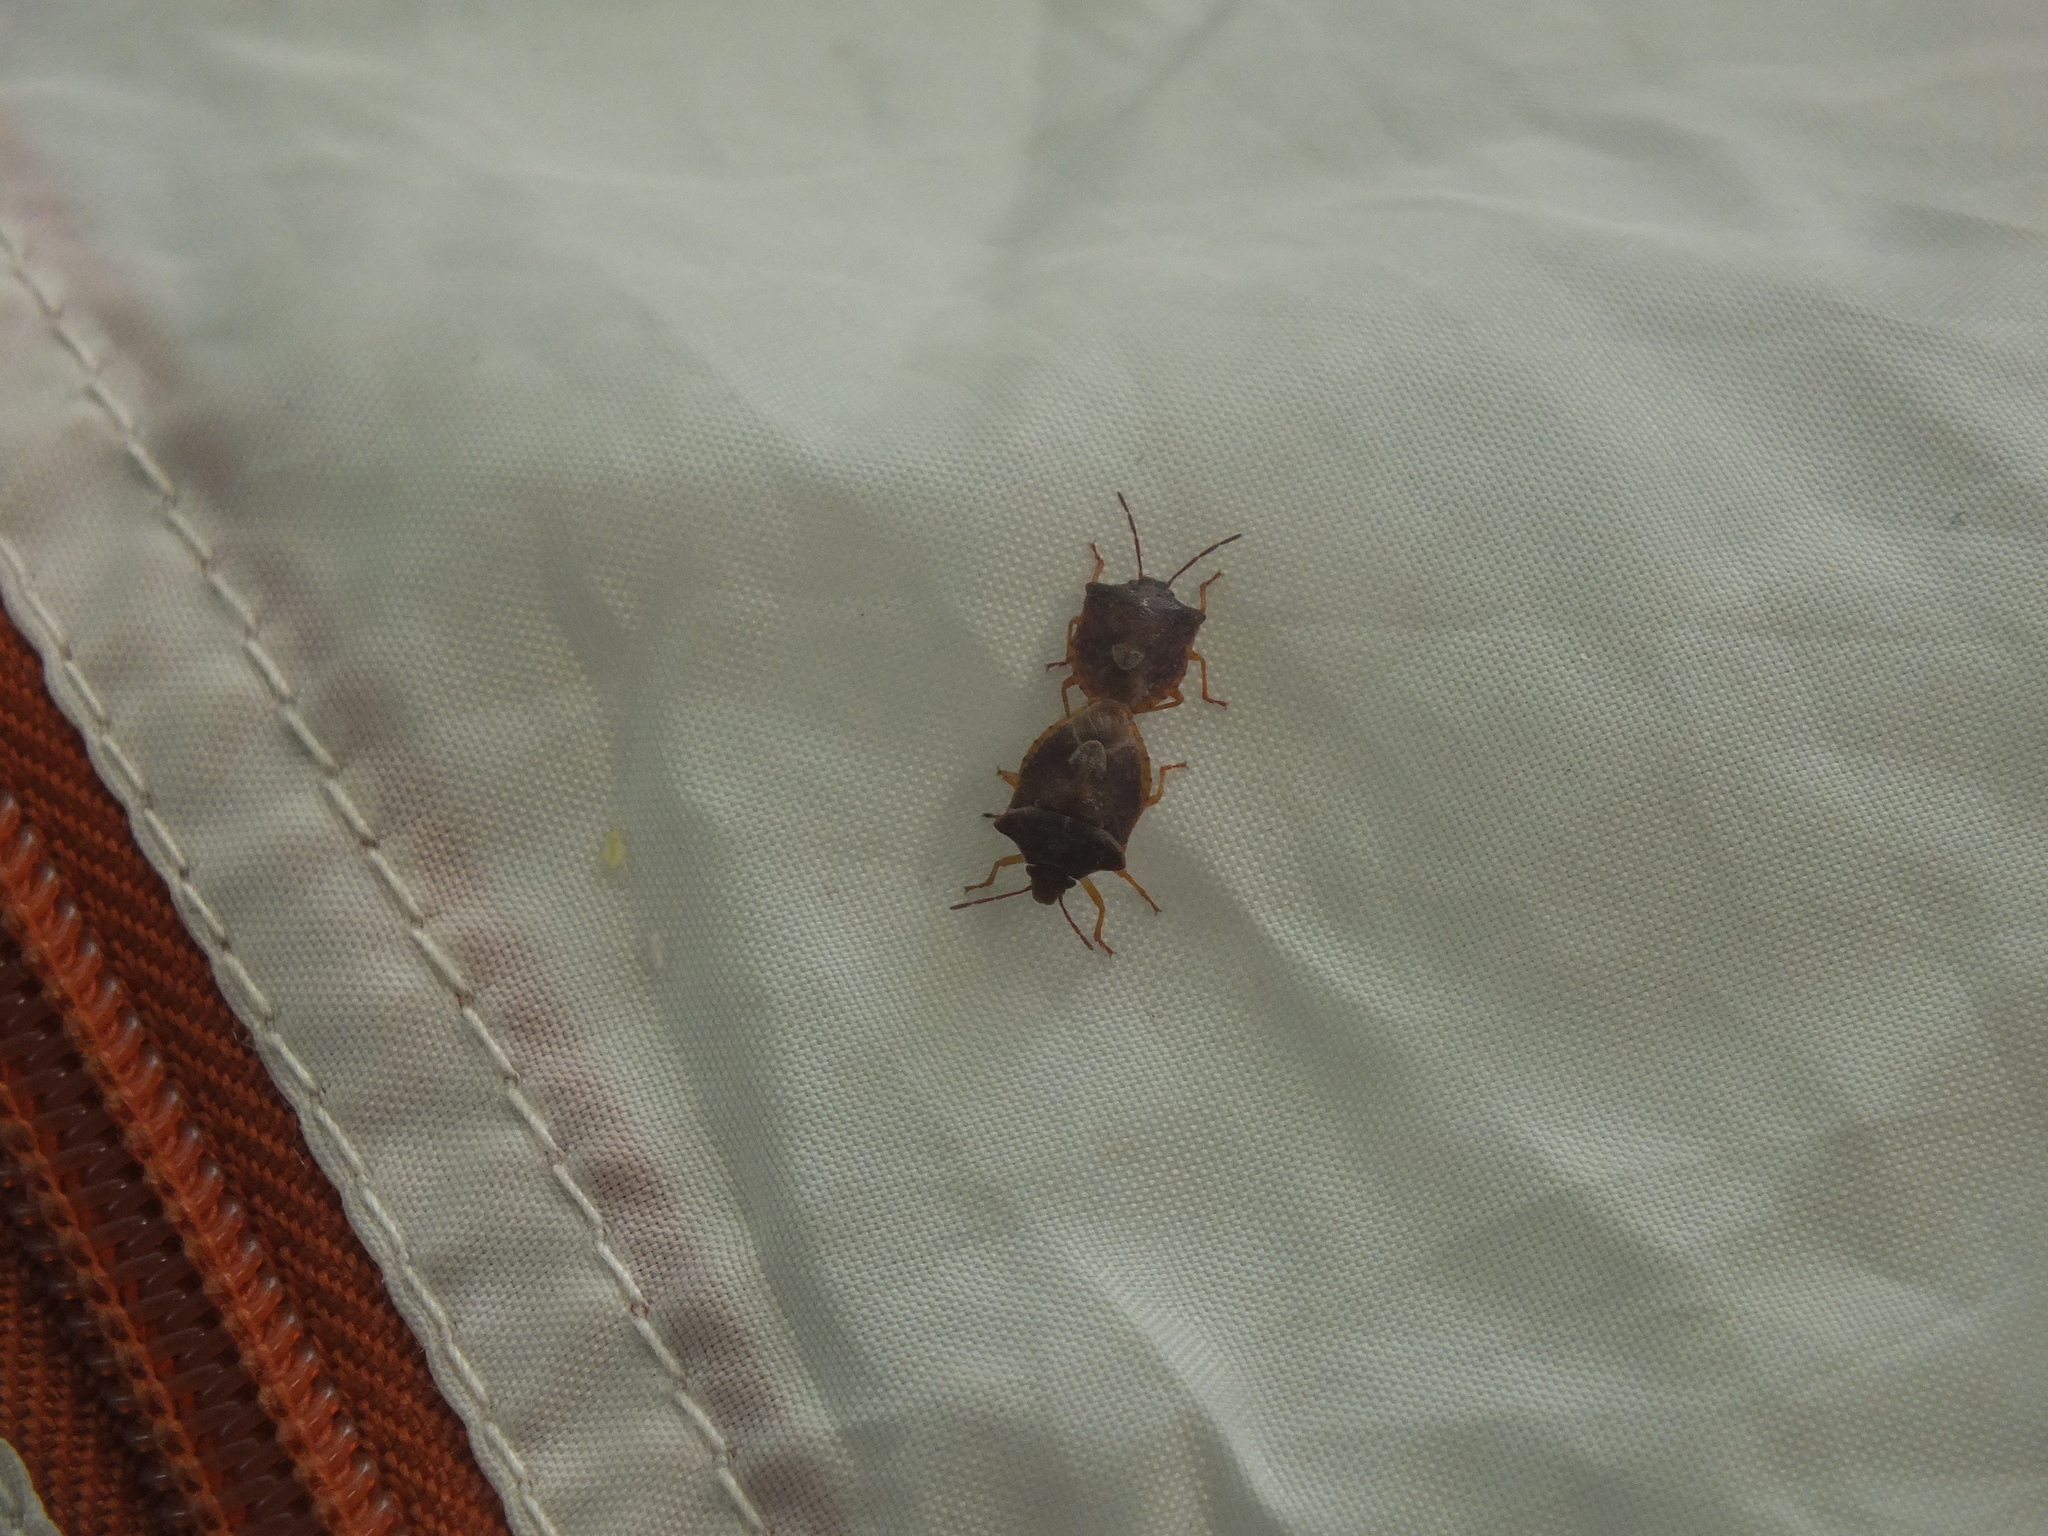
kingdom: Animalia
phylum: Arthropoda
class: Insecta
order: Hemiptera
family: Pentatomidae
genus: Dendrocoris
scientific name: Dendrocoris humeralis
